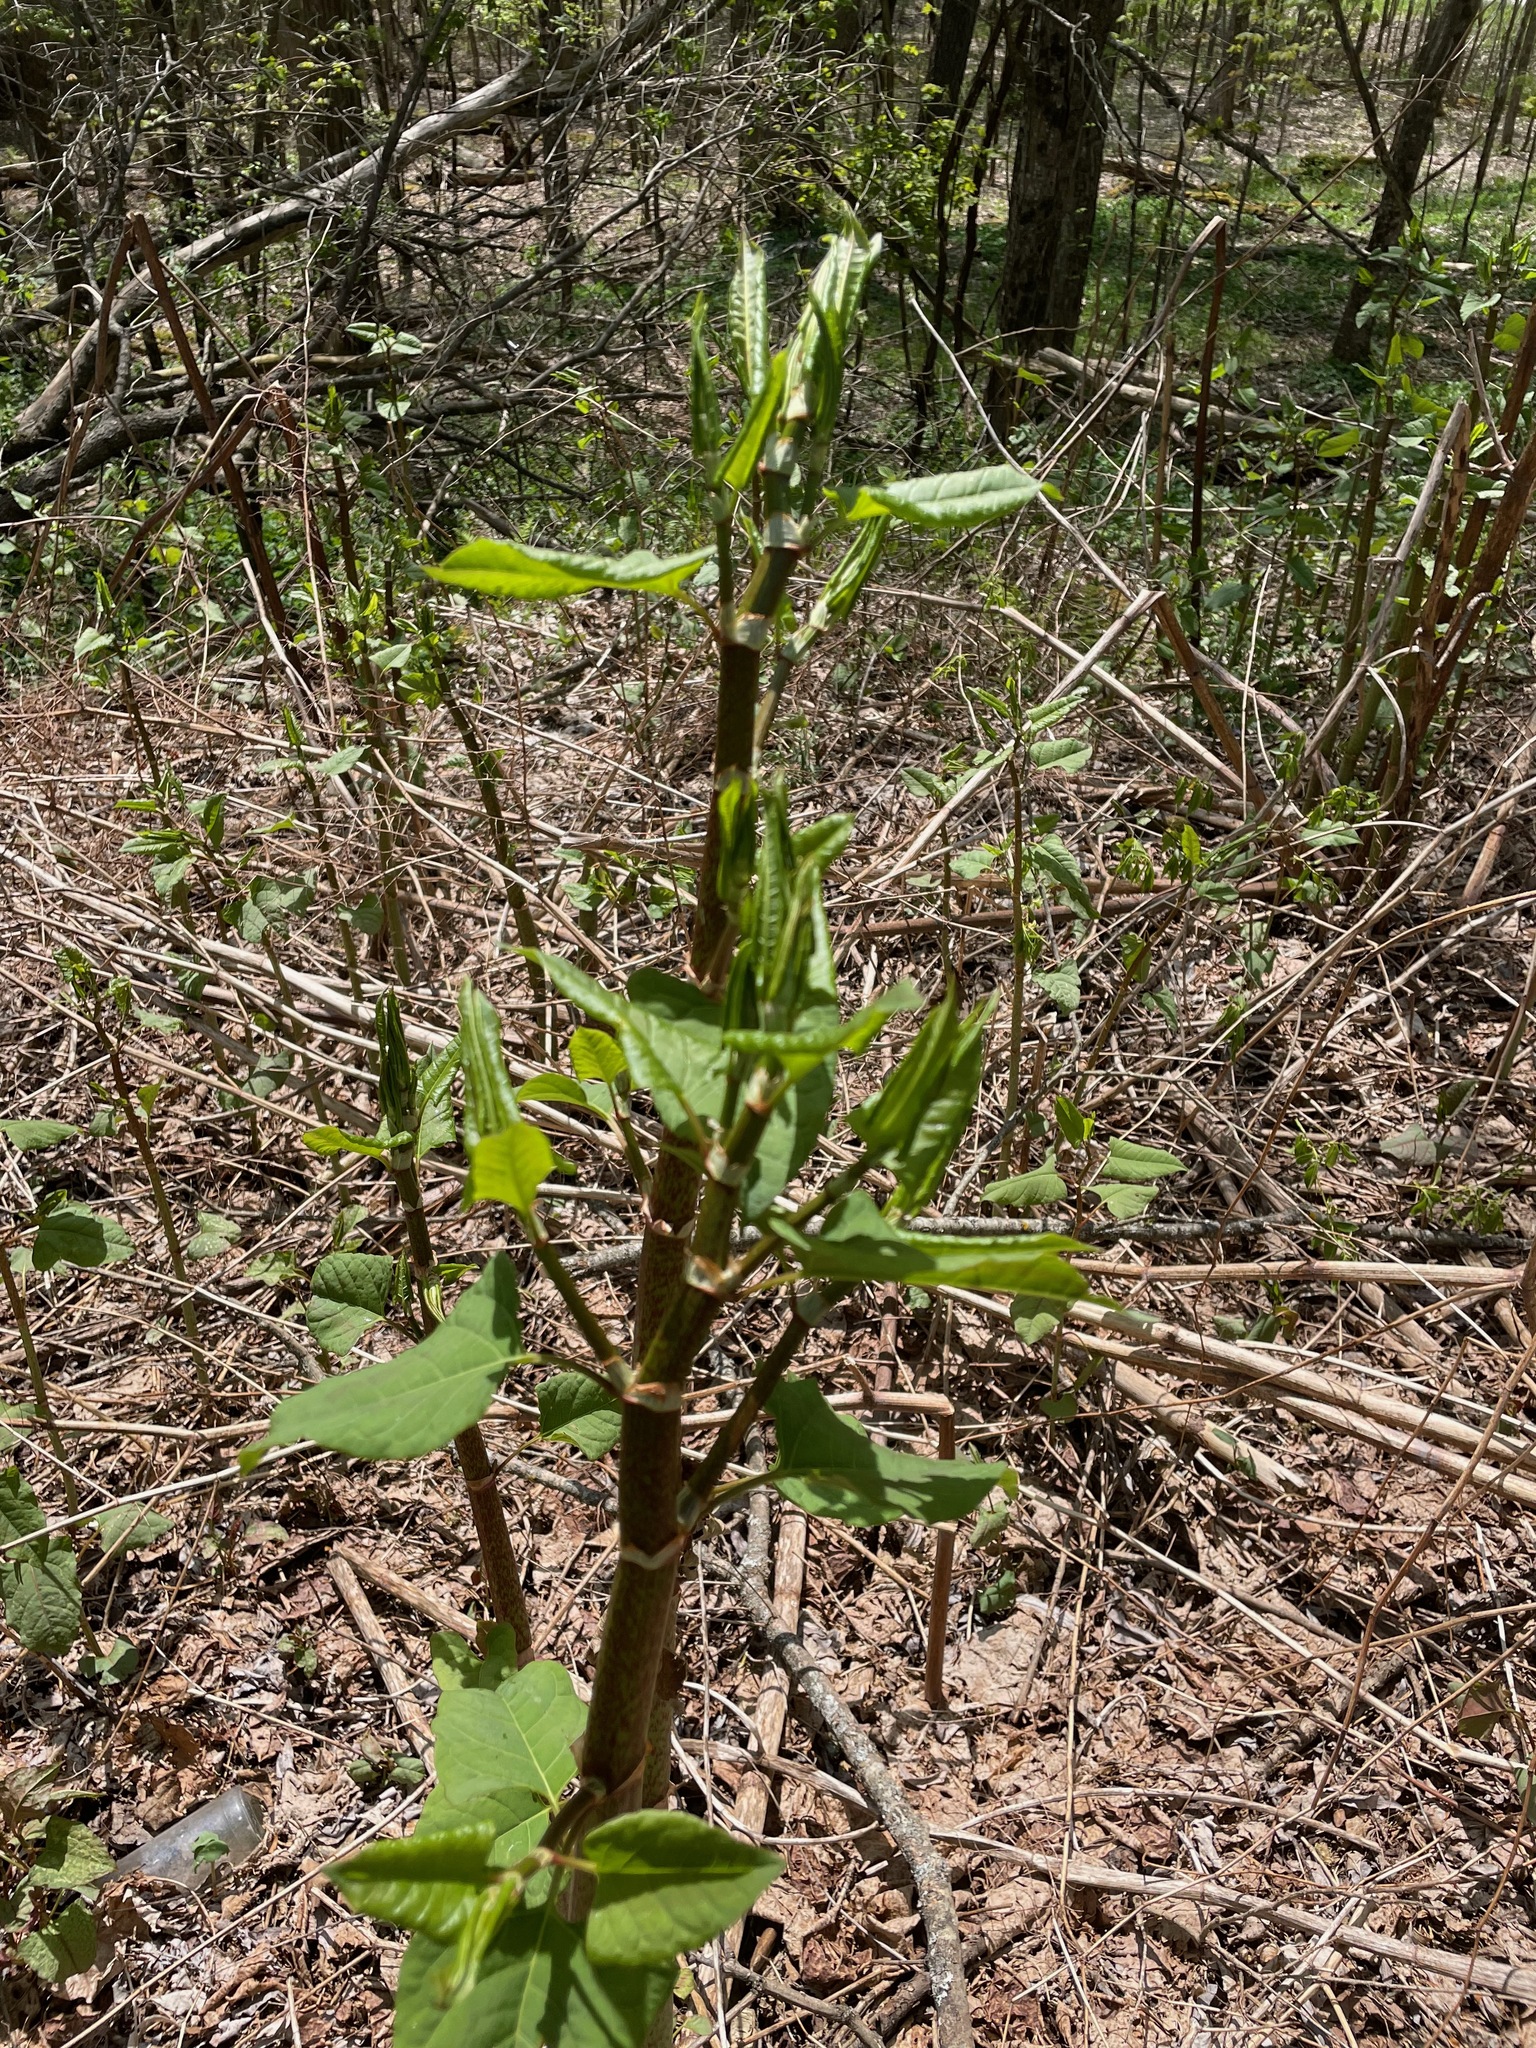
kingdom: Plantae
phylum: Tracheophyta
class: Magnoliopsida
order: Caryophyllales
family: Polygonaceae
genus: Reynoutria
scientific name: Reynoutria japonica
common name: Japanese knotweed
